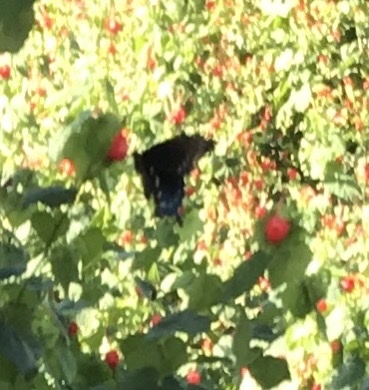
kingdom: Animalia
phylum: Arthropoda
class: Insecta
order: Lepidoptera
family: Papilionidae
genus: Battus
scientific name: Battus philenor
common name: Pipevine swallowtail
